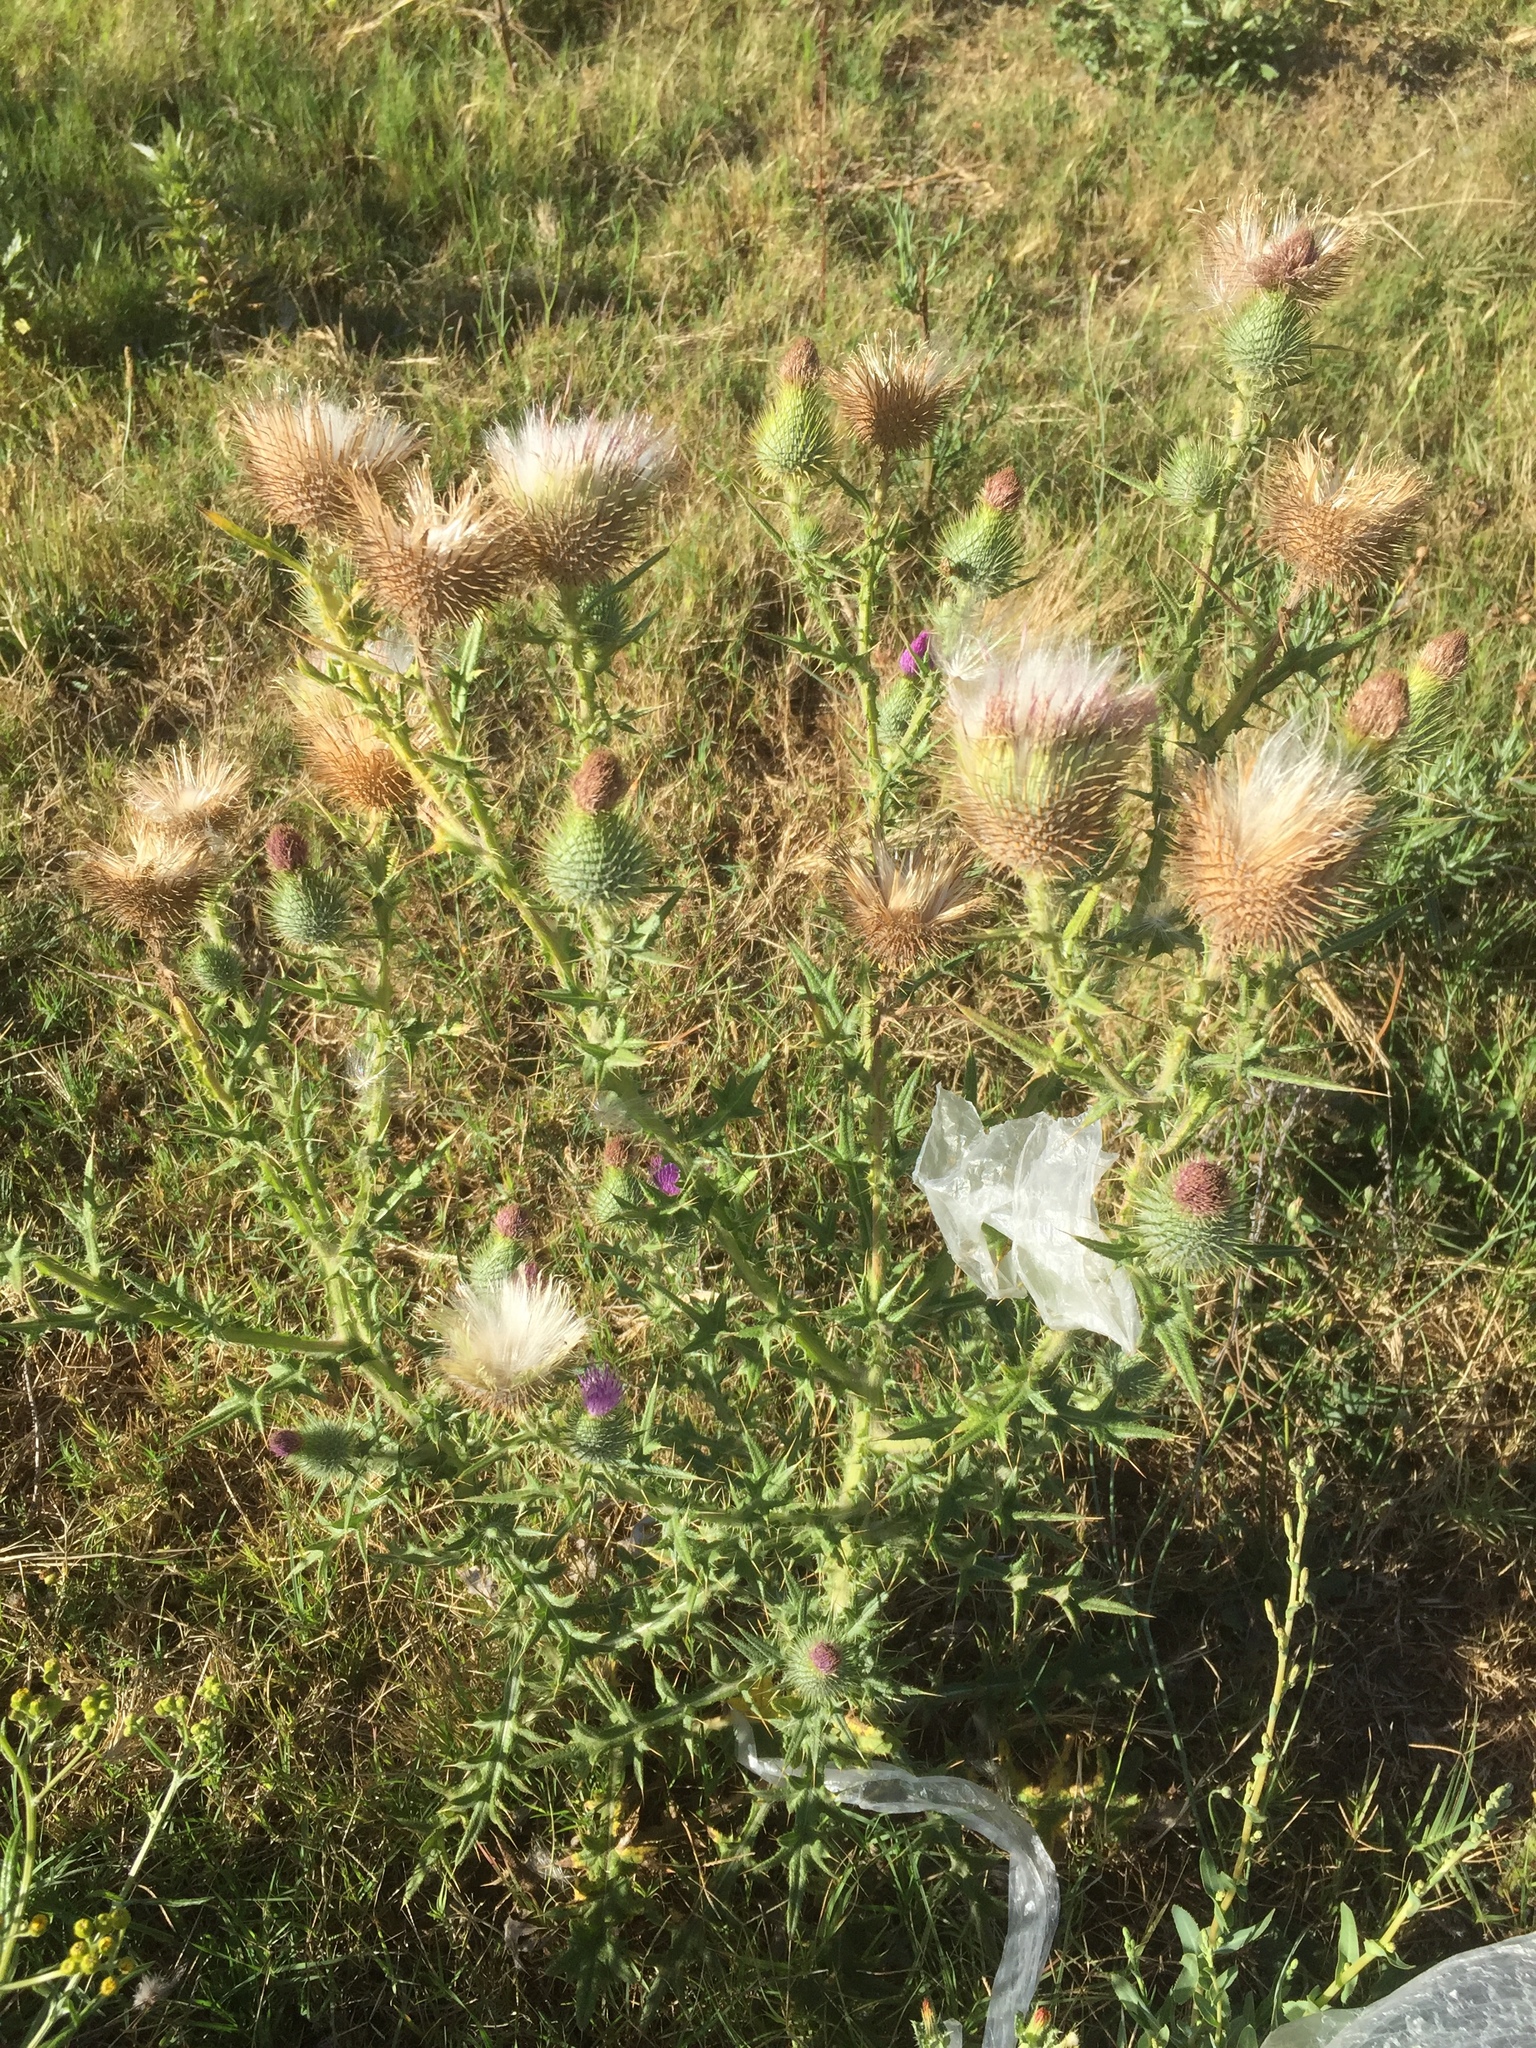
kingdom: Plantae
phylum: Tracheophyta
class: Magnoliopsida
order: Asterales
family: Asteraceae
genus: Cirsium
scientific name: Cirsium vulgare
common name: Bull thistle
